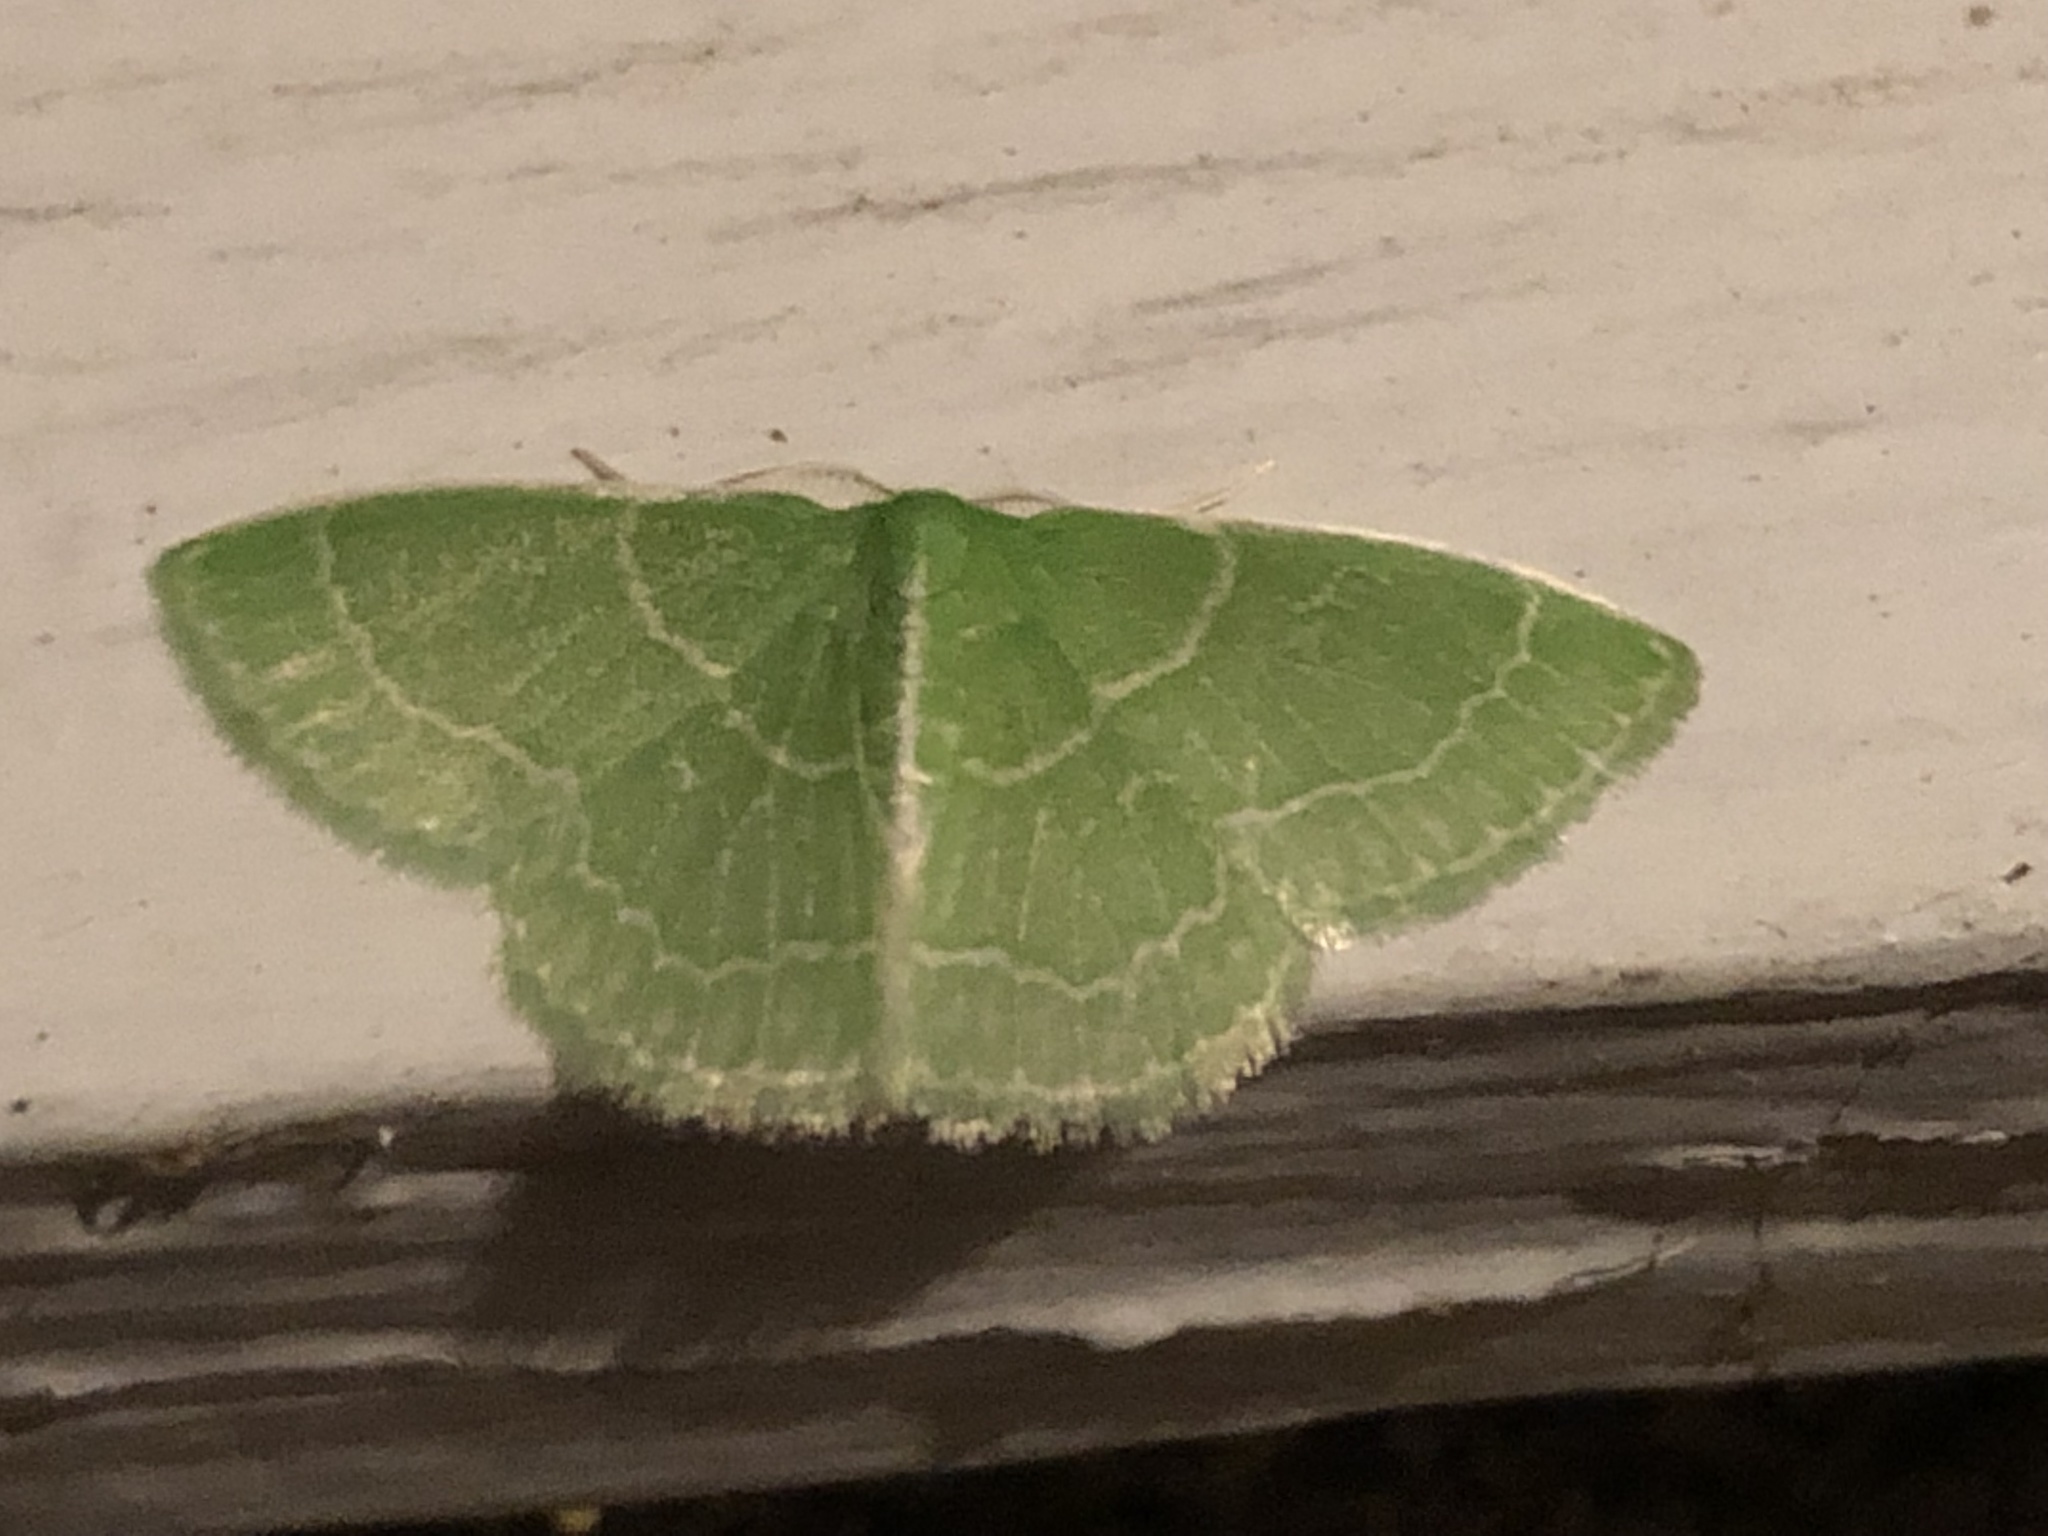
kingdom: Animalia
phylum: Arthropoda
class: Insecta
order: Lepidoptera
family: Geometridae
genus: Synchlora
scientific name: Synchlora aerata
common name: Wavy-lined emerald
